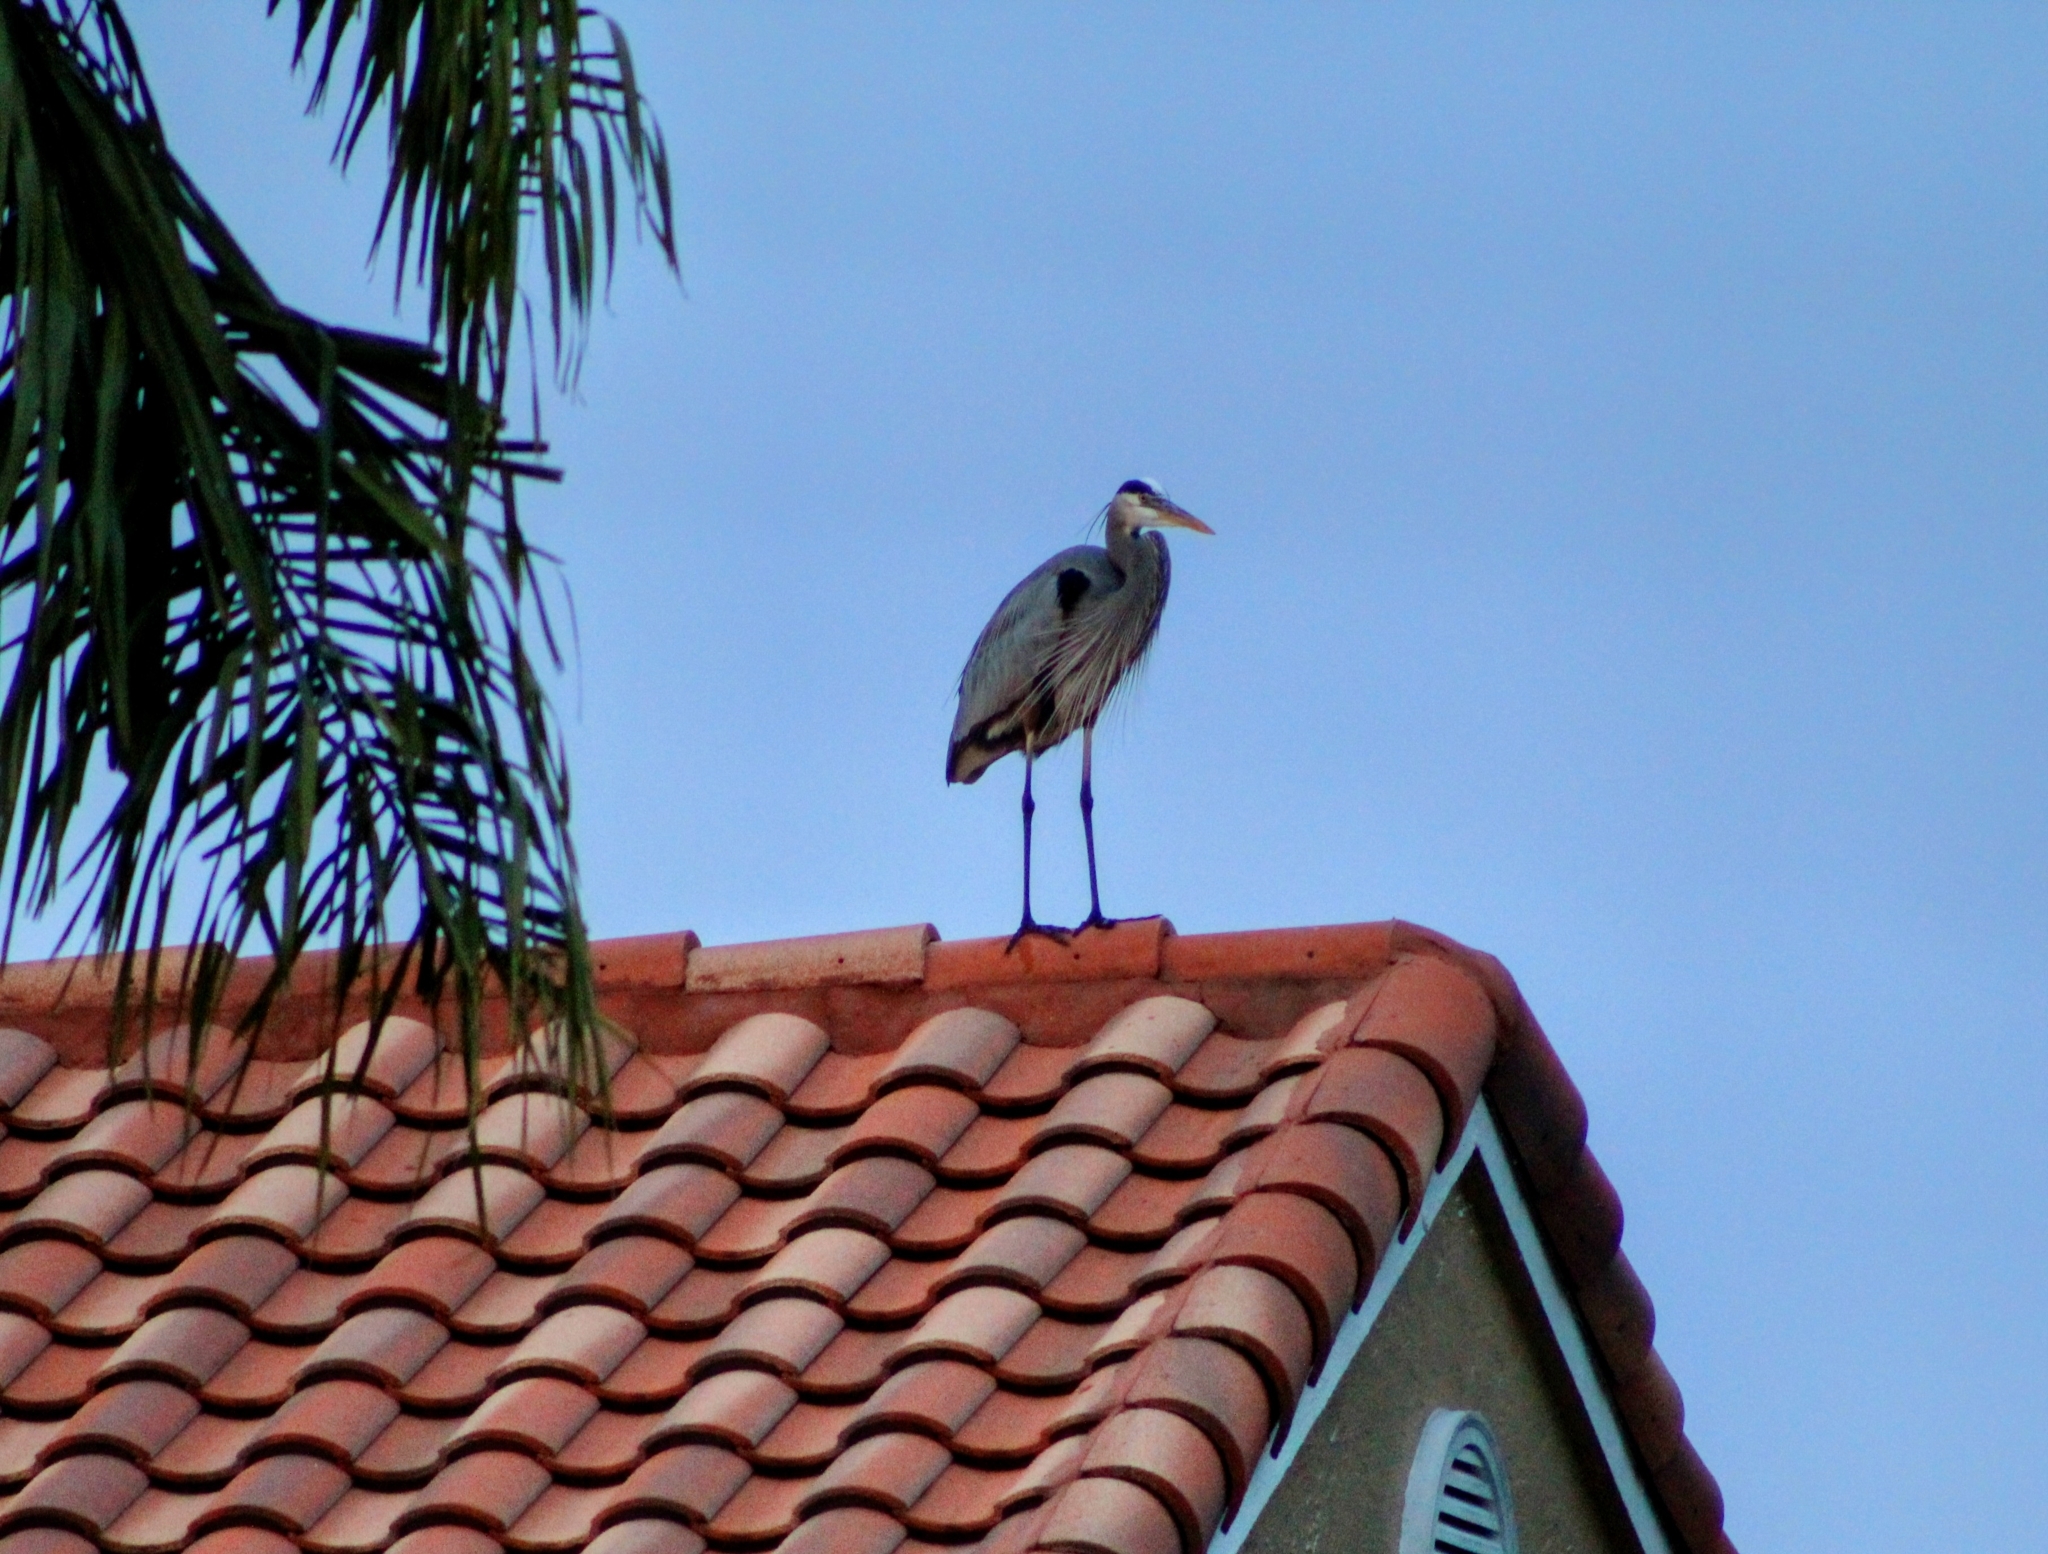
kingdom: Animalia
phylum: Chordata
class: Aves
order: Pelecaniformes
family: Ardeidae
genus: Ardea
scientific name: Ardea herodias
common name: Great blue heron
